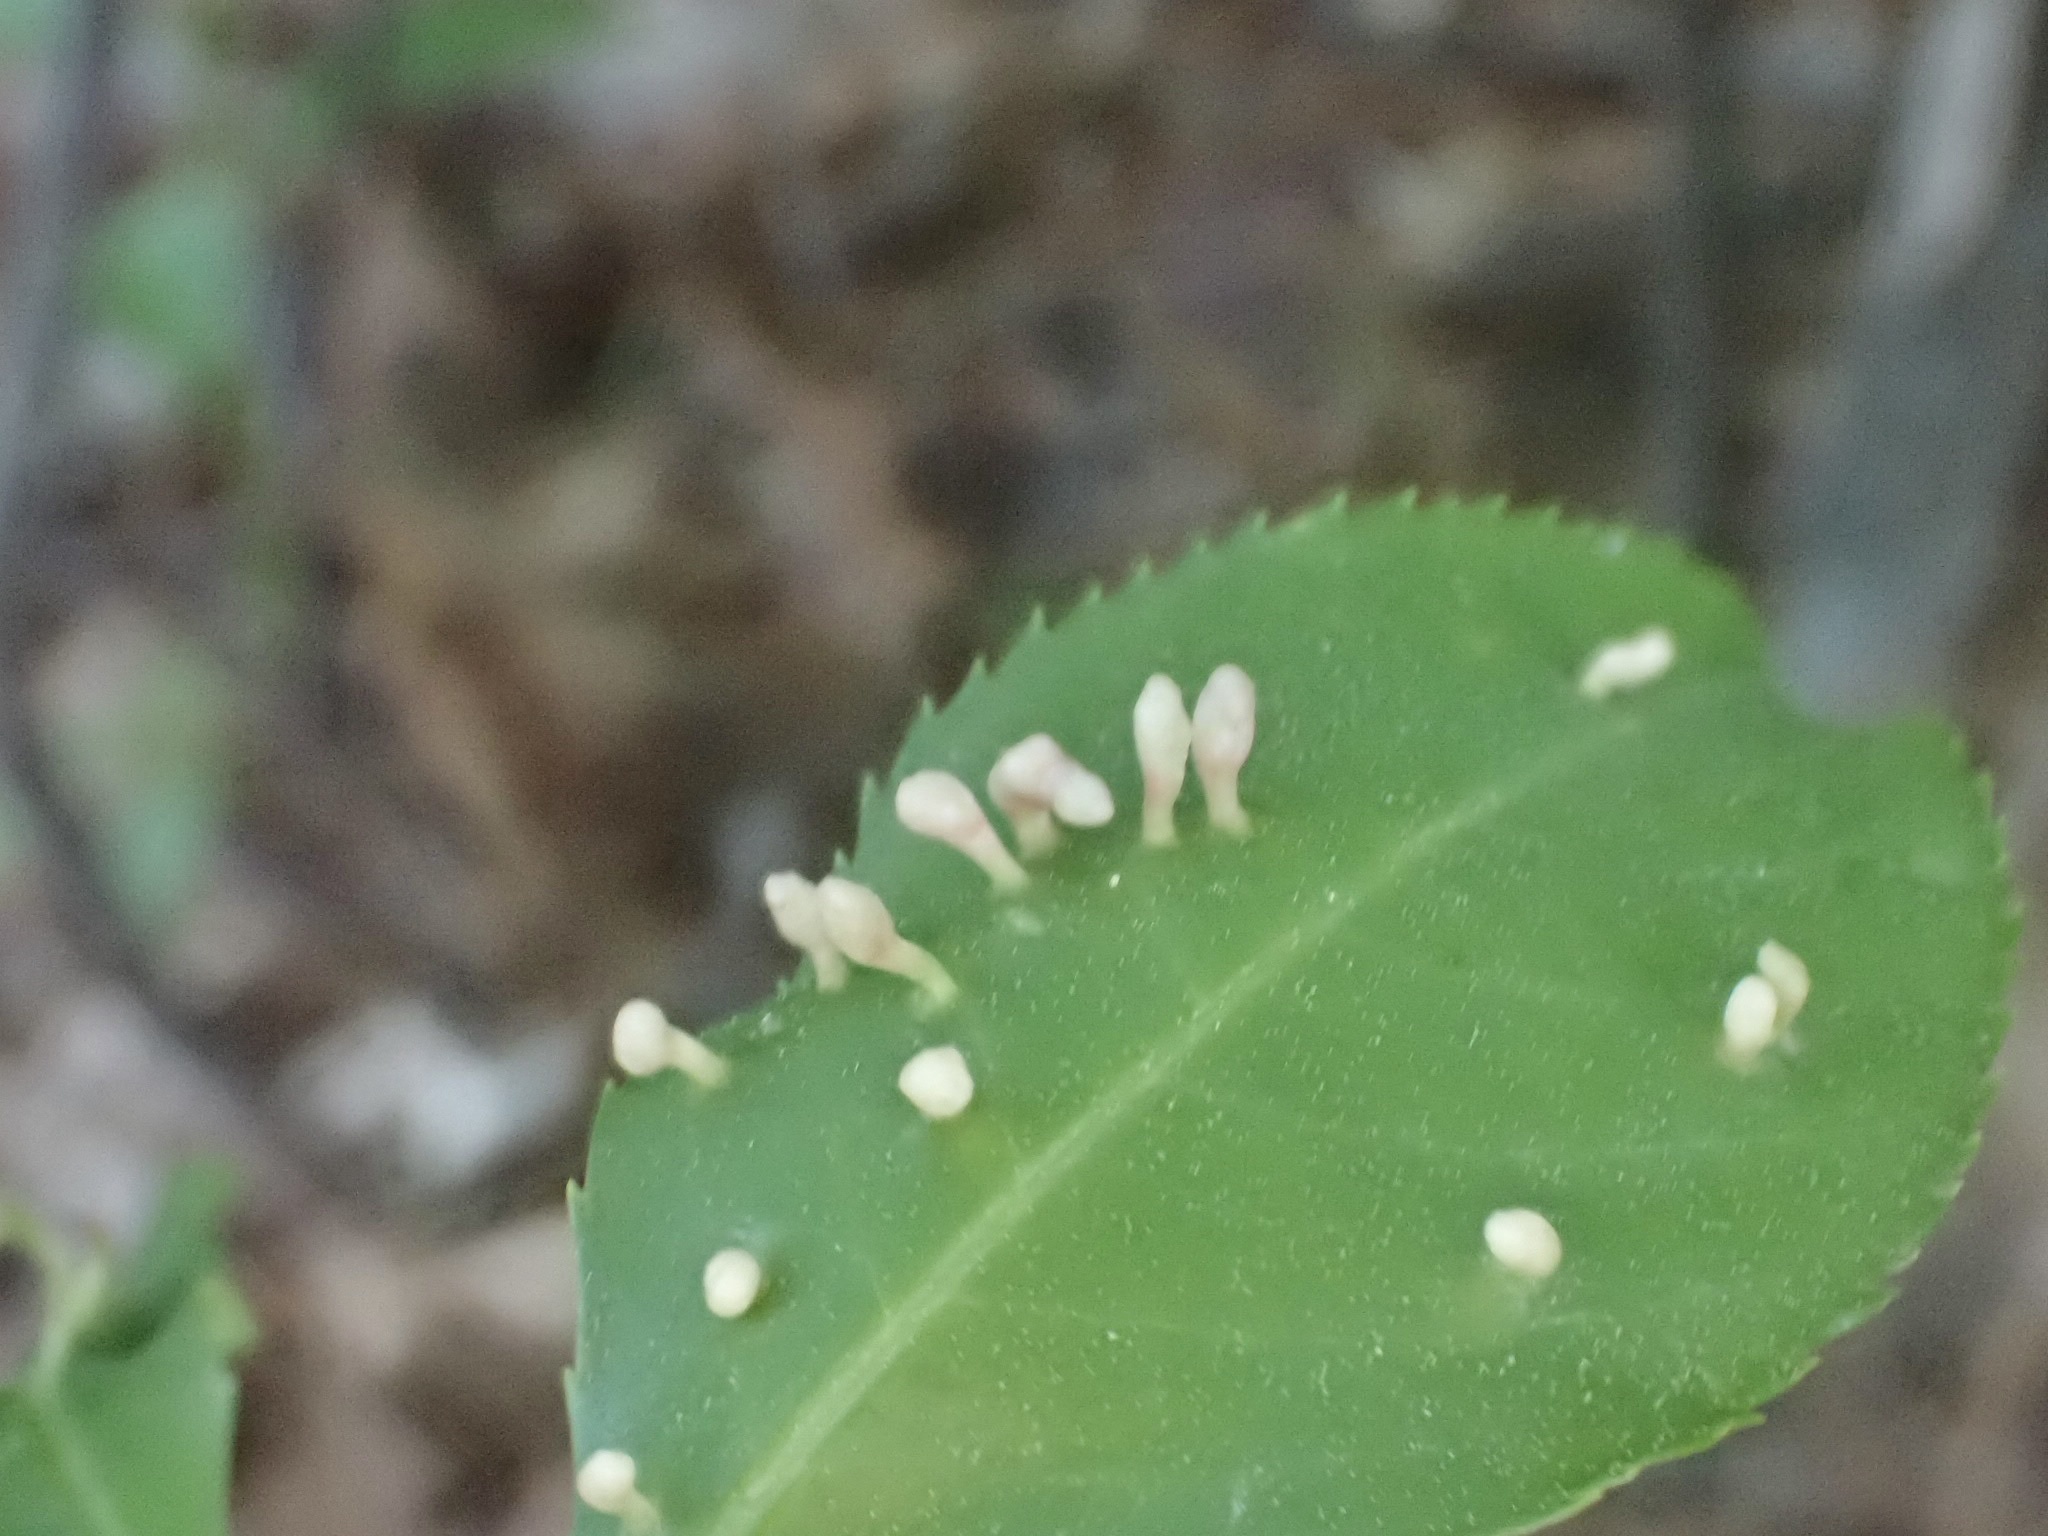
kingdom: Animalia
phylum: Arthropoda
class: Arachnida
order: Trombidiformes
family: Eriophyidae
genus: Eriophyes
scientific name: Eriophyes emarginatae
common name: Plum leaf gall mite
